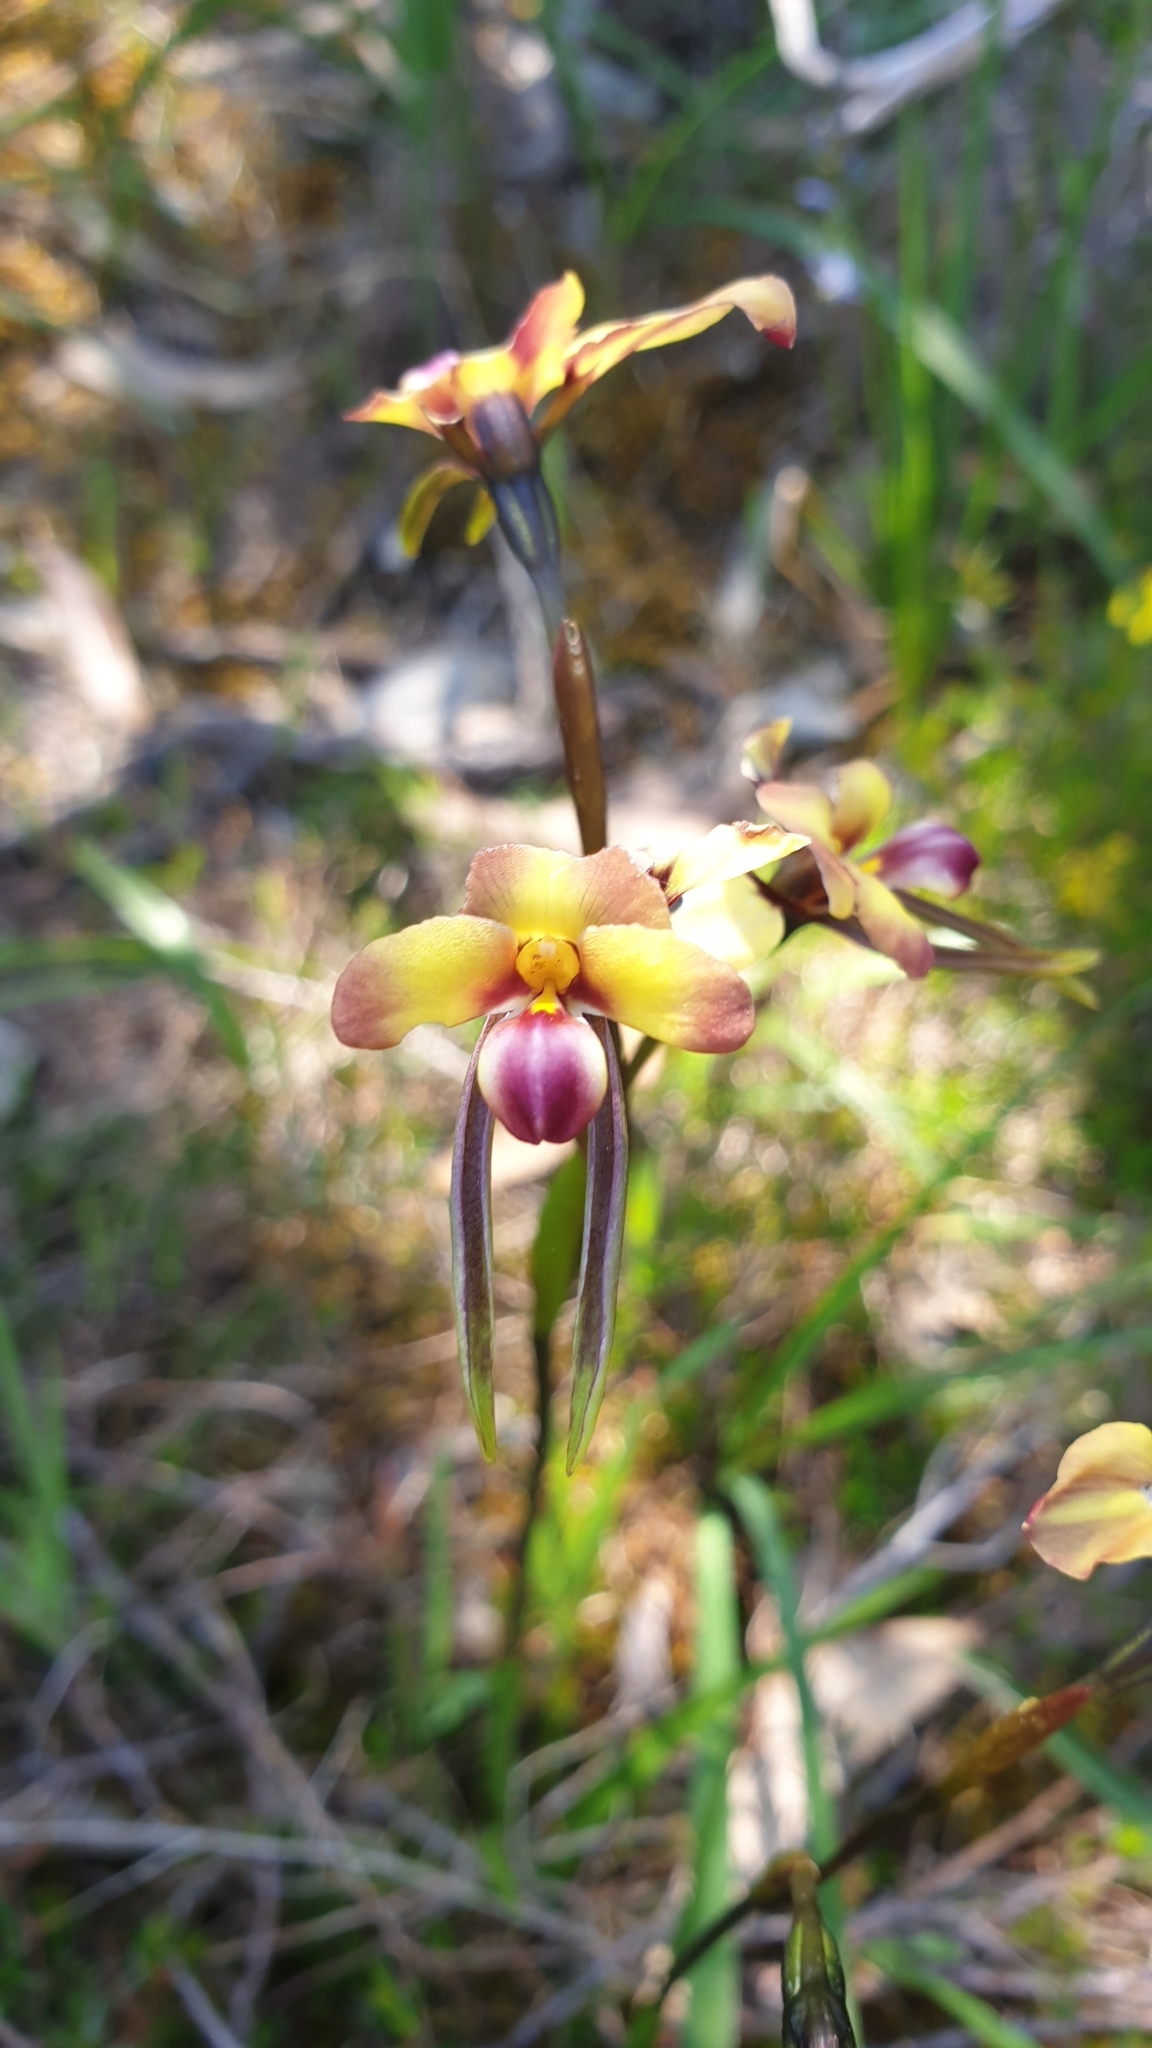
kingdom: Plantae
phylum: Tracheophyta
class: Liliopsida
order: Asparagales
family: Orchidaceae
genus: Diuris
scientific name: Diuris orientis
